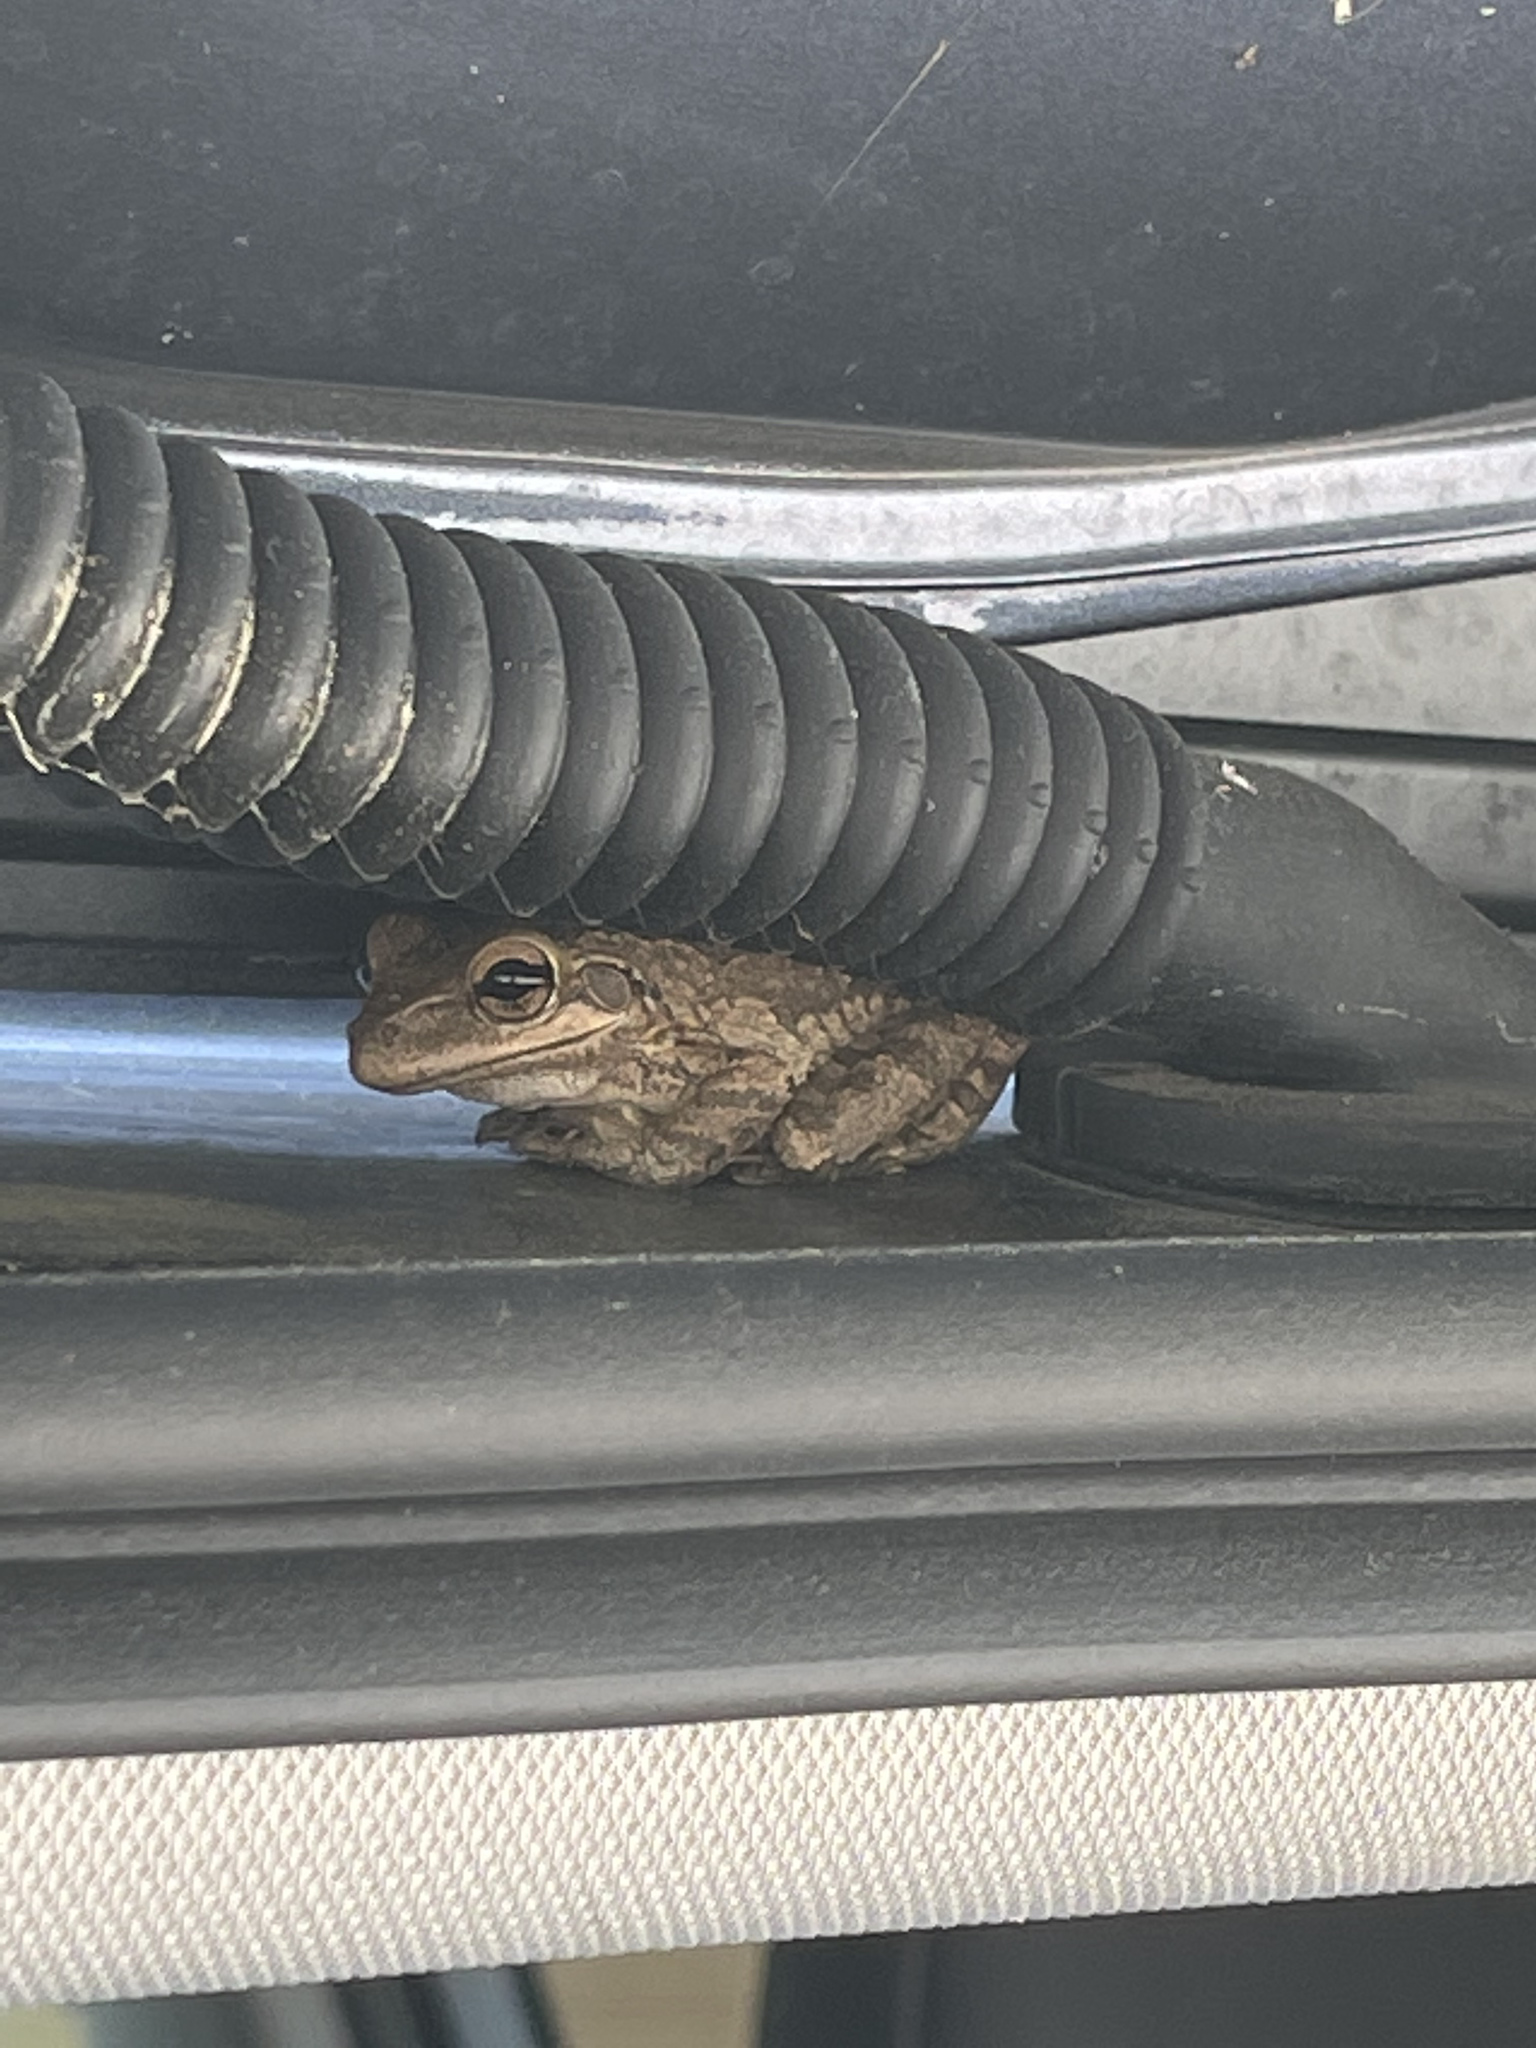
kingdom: Animalia
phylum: Chordata
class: Amphibia
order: Anura
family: Hylidae
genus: Osteopilus
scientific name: Osteopilus septentrionalis
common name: Cuban treefrog
